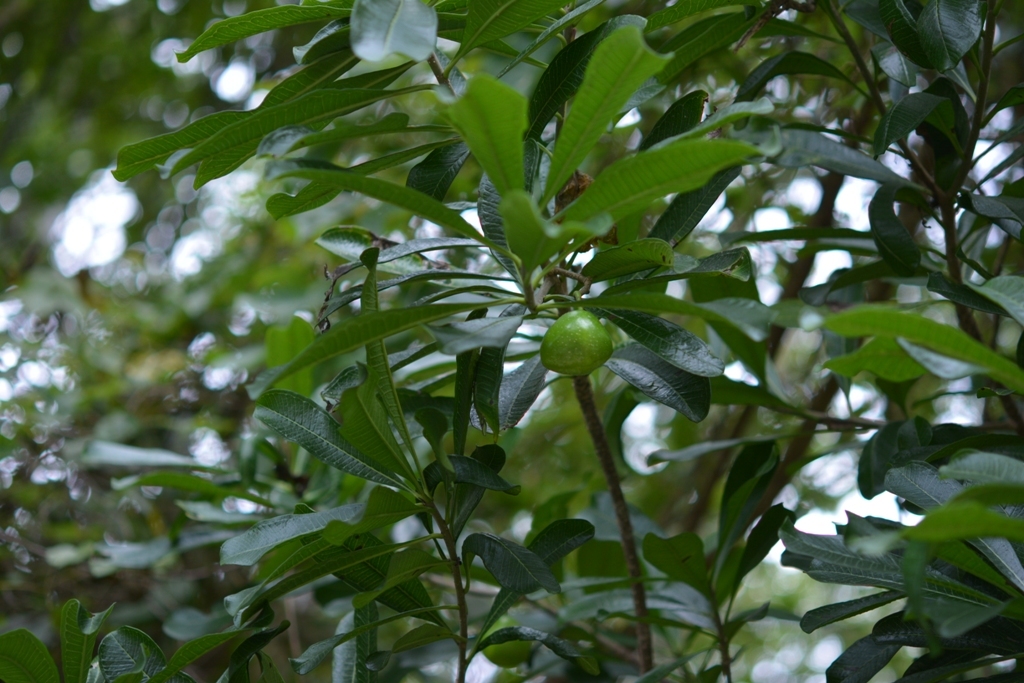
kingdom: Plantae
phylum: Tracheophyta
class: Magnoliopsida
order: Gentianales
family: Apocynaceae
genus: Cascabela
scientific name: Cascabela ovata
